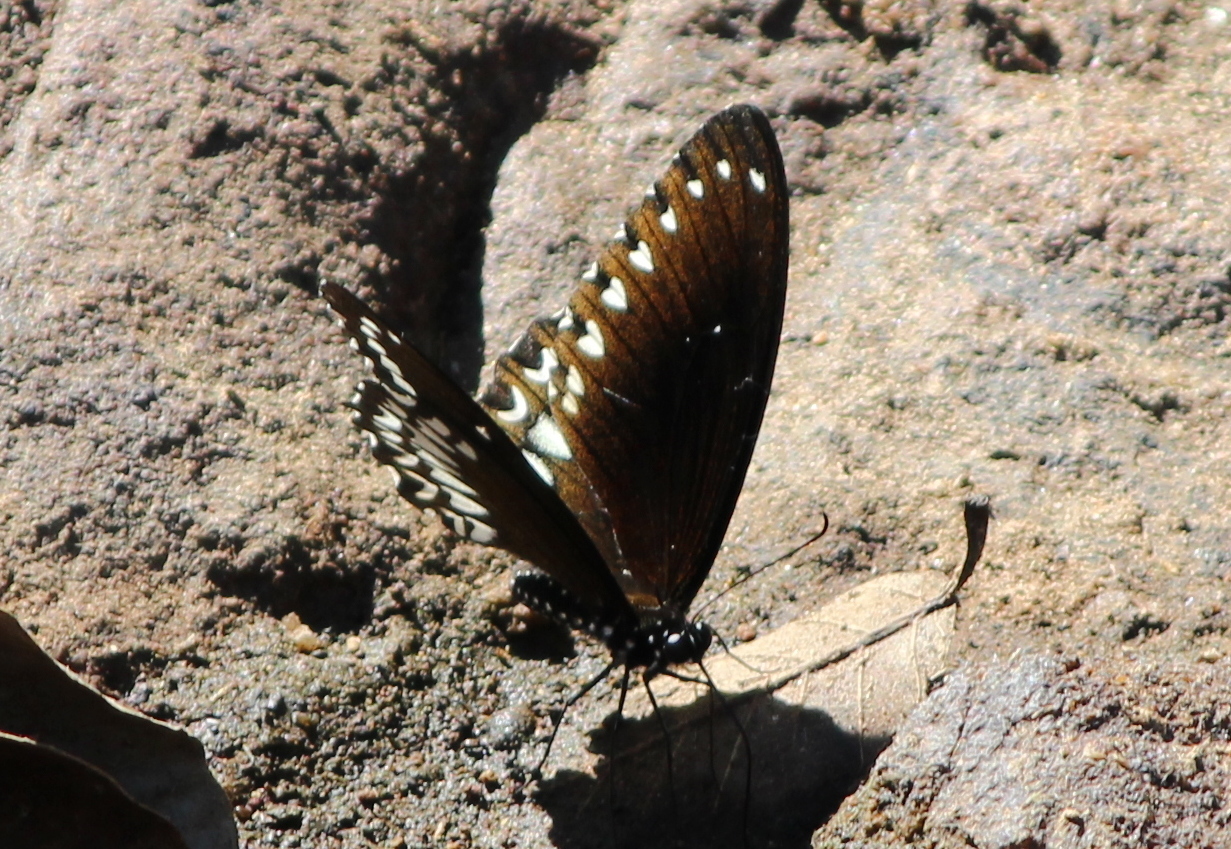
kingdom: Animalia
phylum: Arthropoda
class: Insecta
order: Lepidoptera
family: Papilionidae
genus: Papilio
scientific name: Papilio dravidarum
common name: Malabar raven
